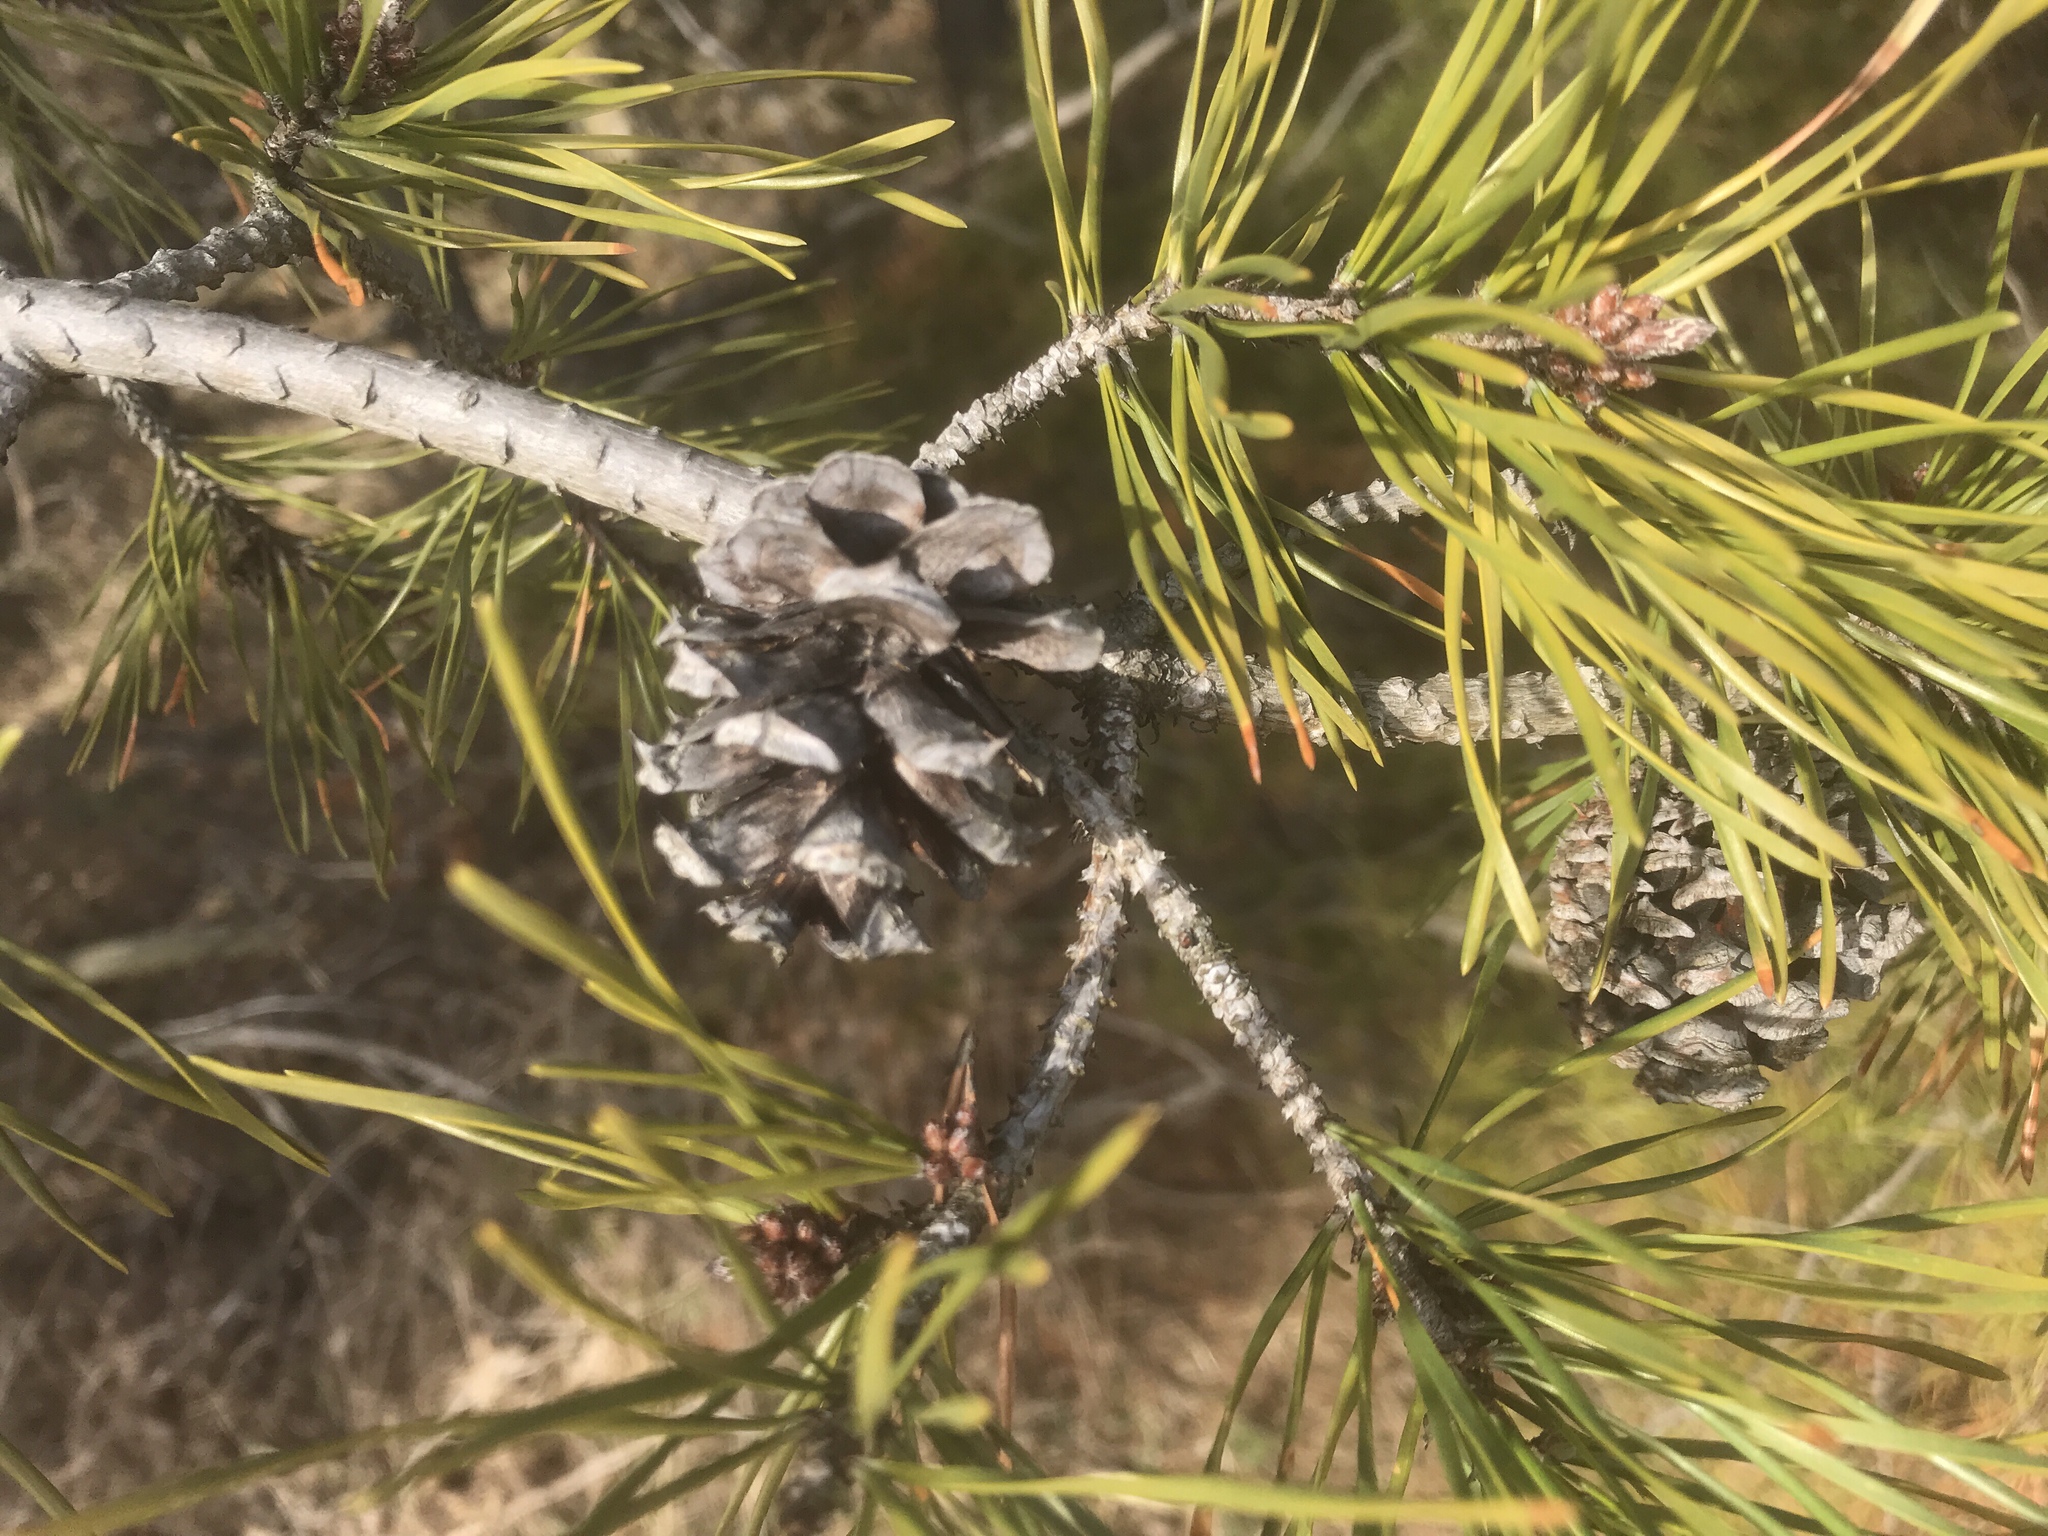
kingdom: Plantae
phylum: Tracheophyta
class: Pinopsida
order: Pinales
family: Pinaceae
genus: Pinus
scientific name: Pinus sylvestris
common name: Scots pine
